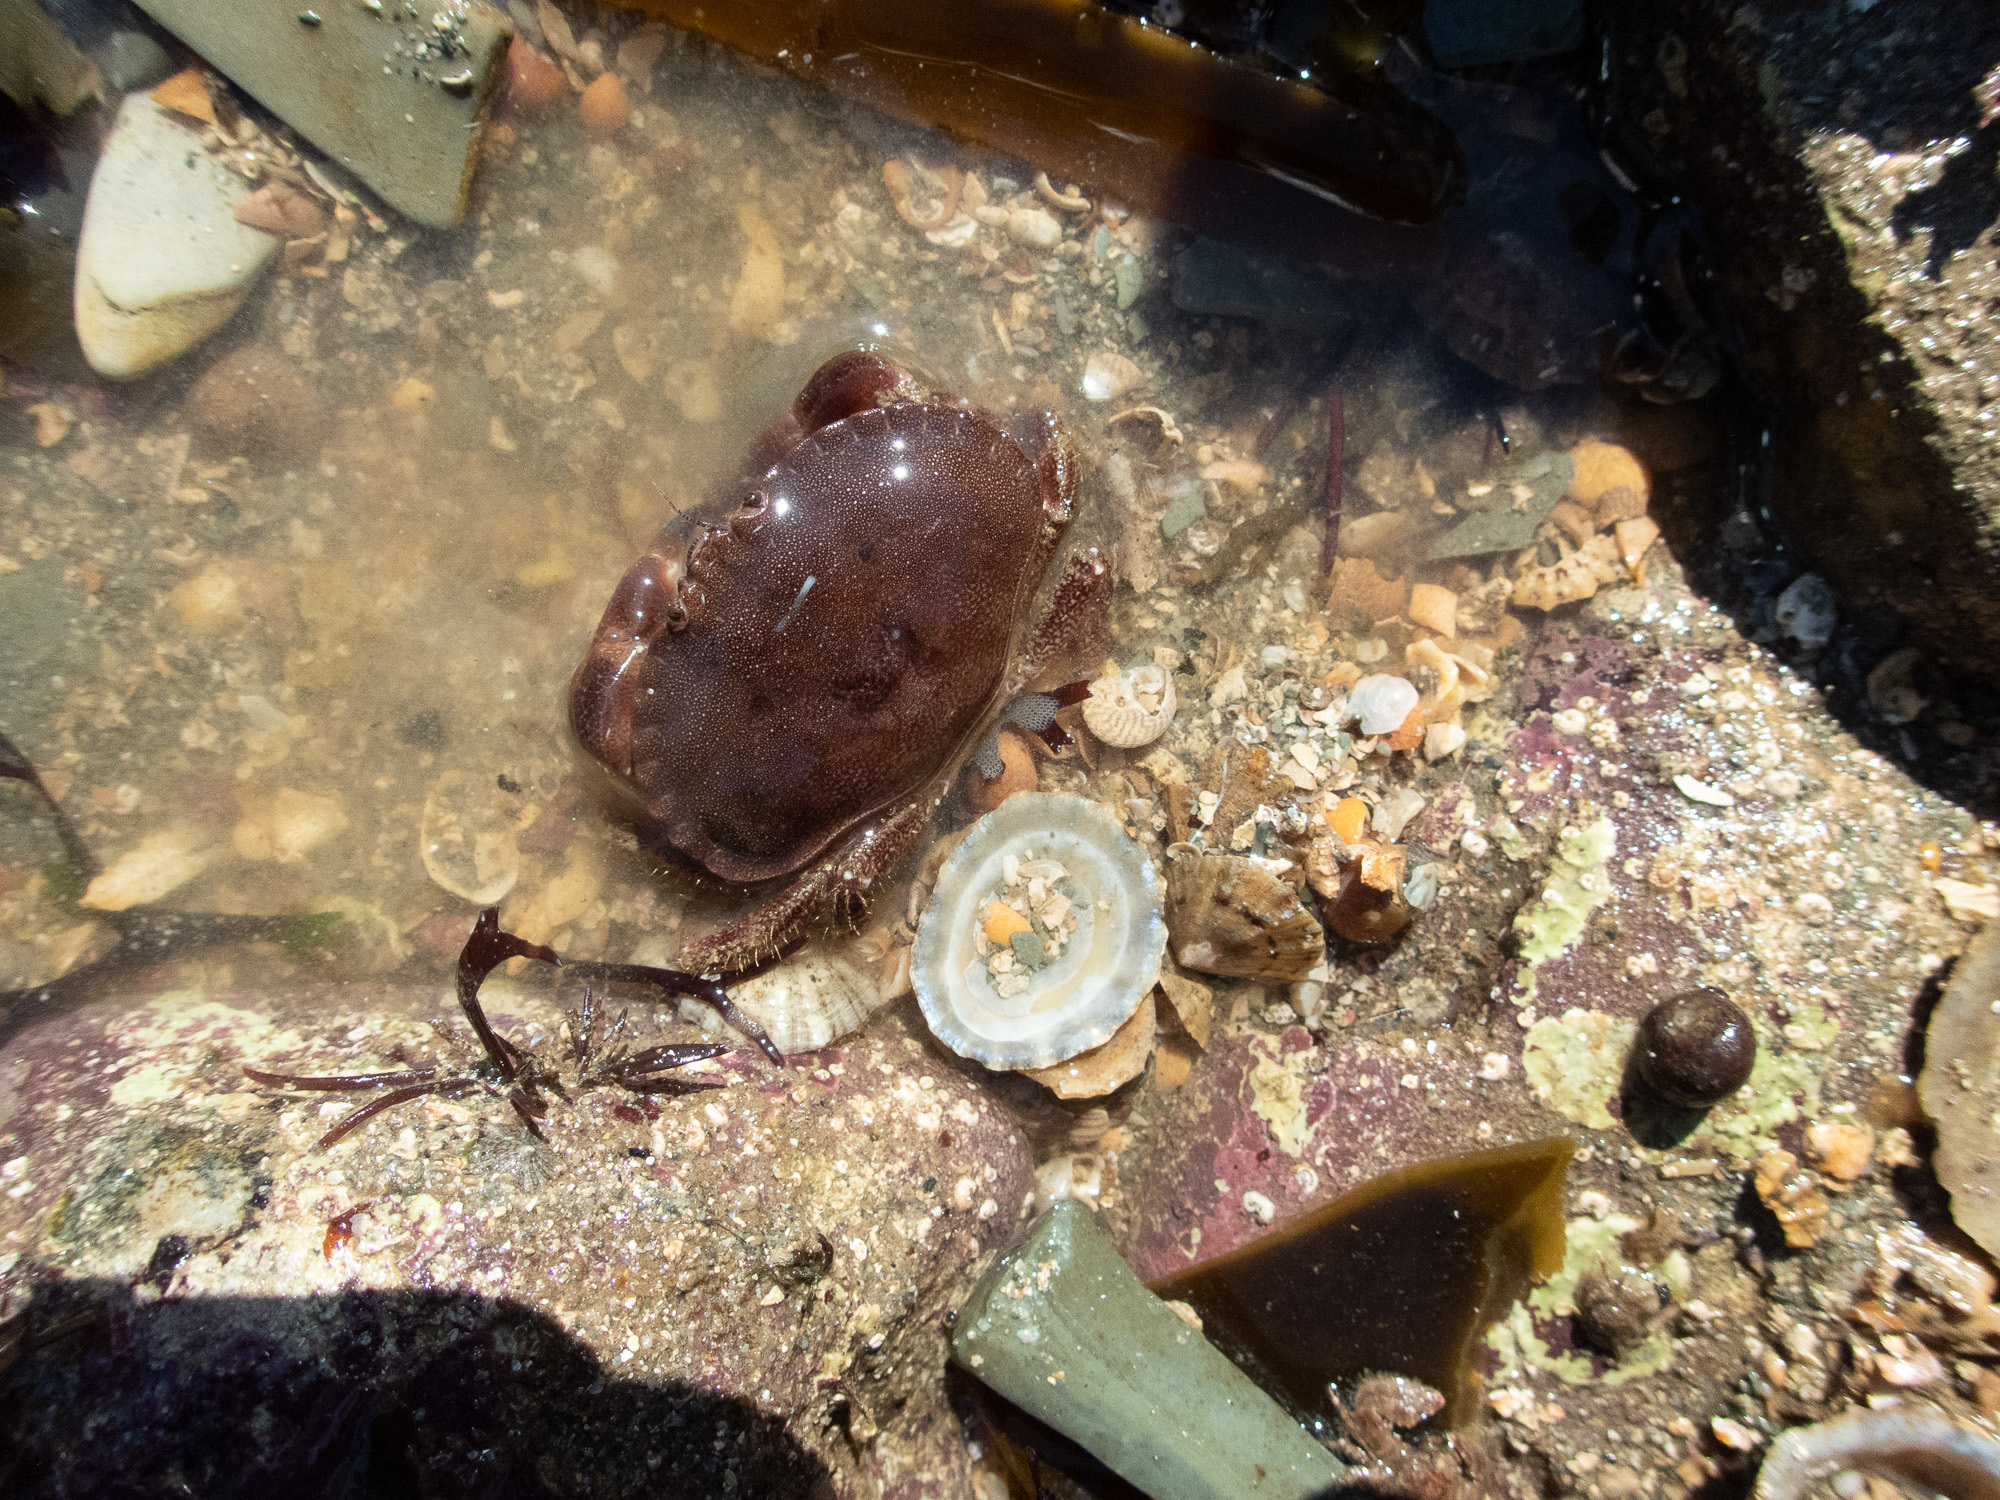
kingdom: Animalia
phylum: Arthropoda
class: Malacostraca
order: Decapoda
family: Cancridae
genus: Cancer
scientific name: Cancer pagurus
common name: Edible crab
